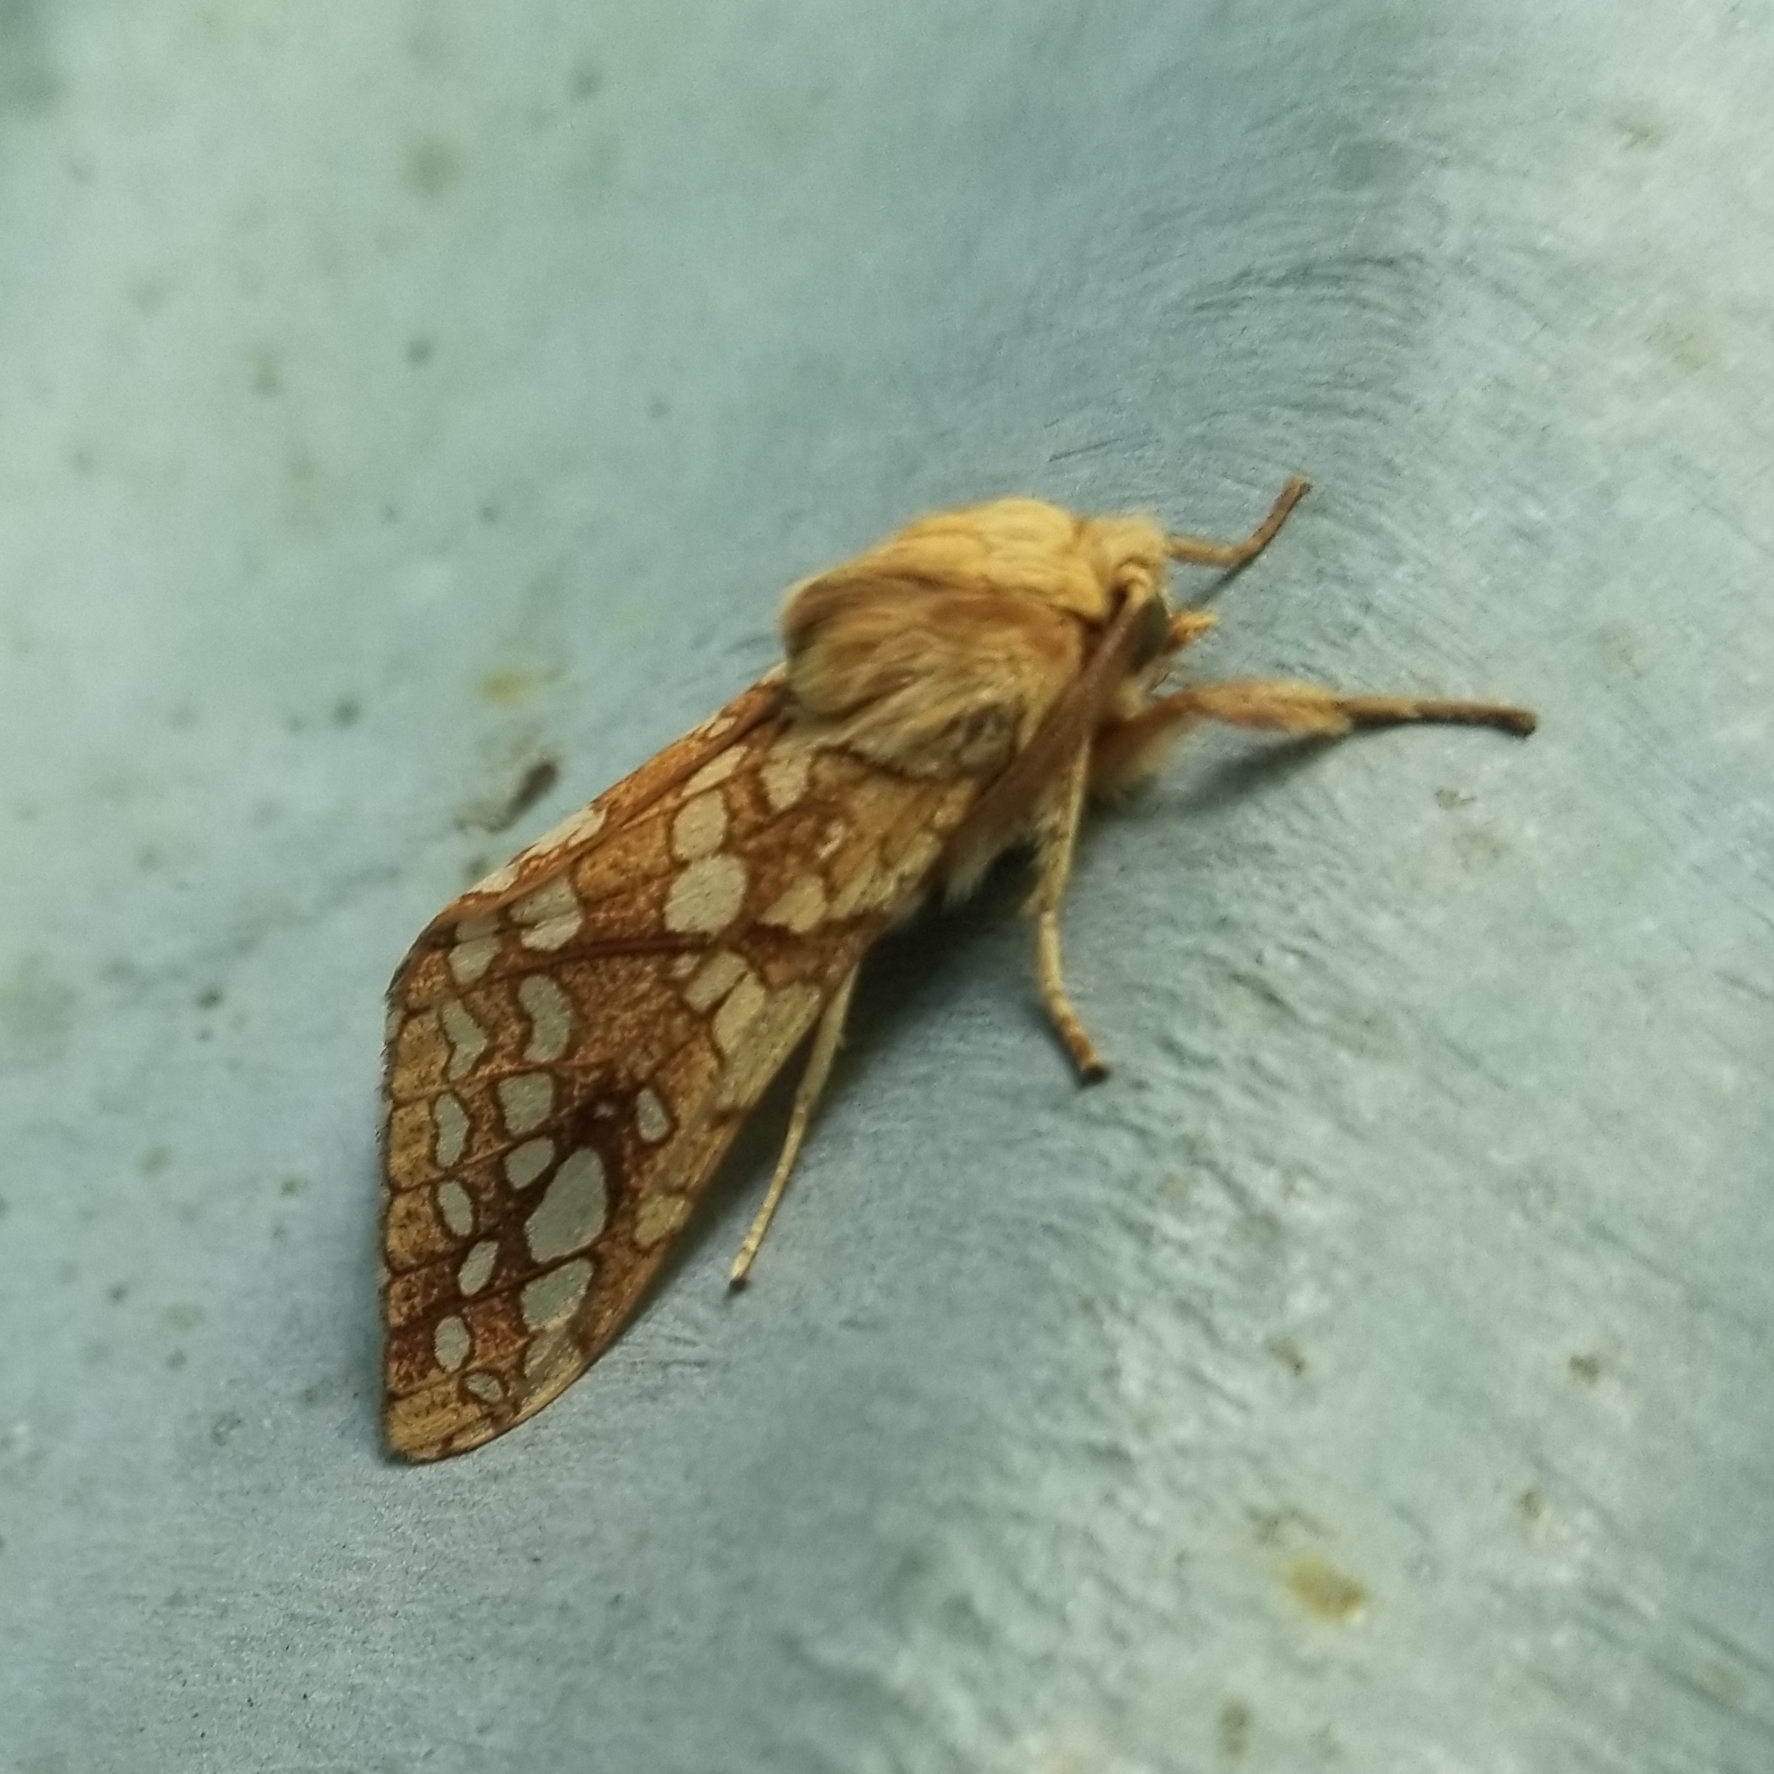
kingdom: Animalia
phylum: Arthropoda
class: Insecta
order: Lepidoptera
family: Erebidae
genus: Lophocampa
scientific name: Lophocampa caryae
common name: Hickory tussock moth
